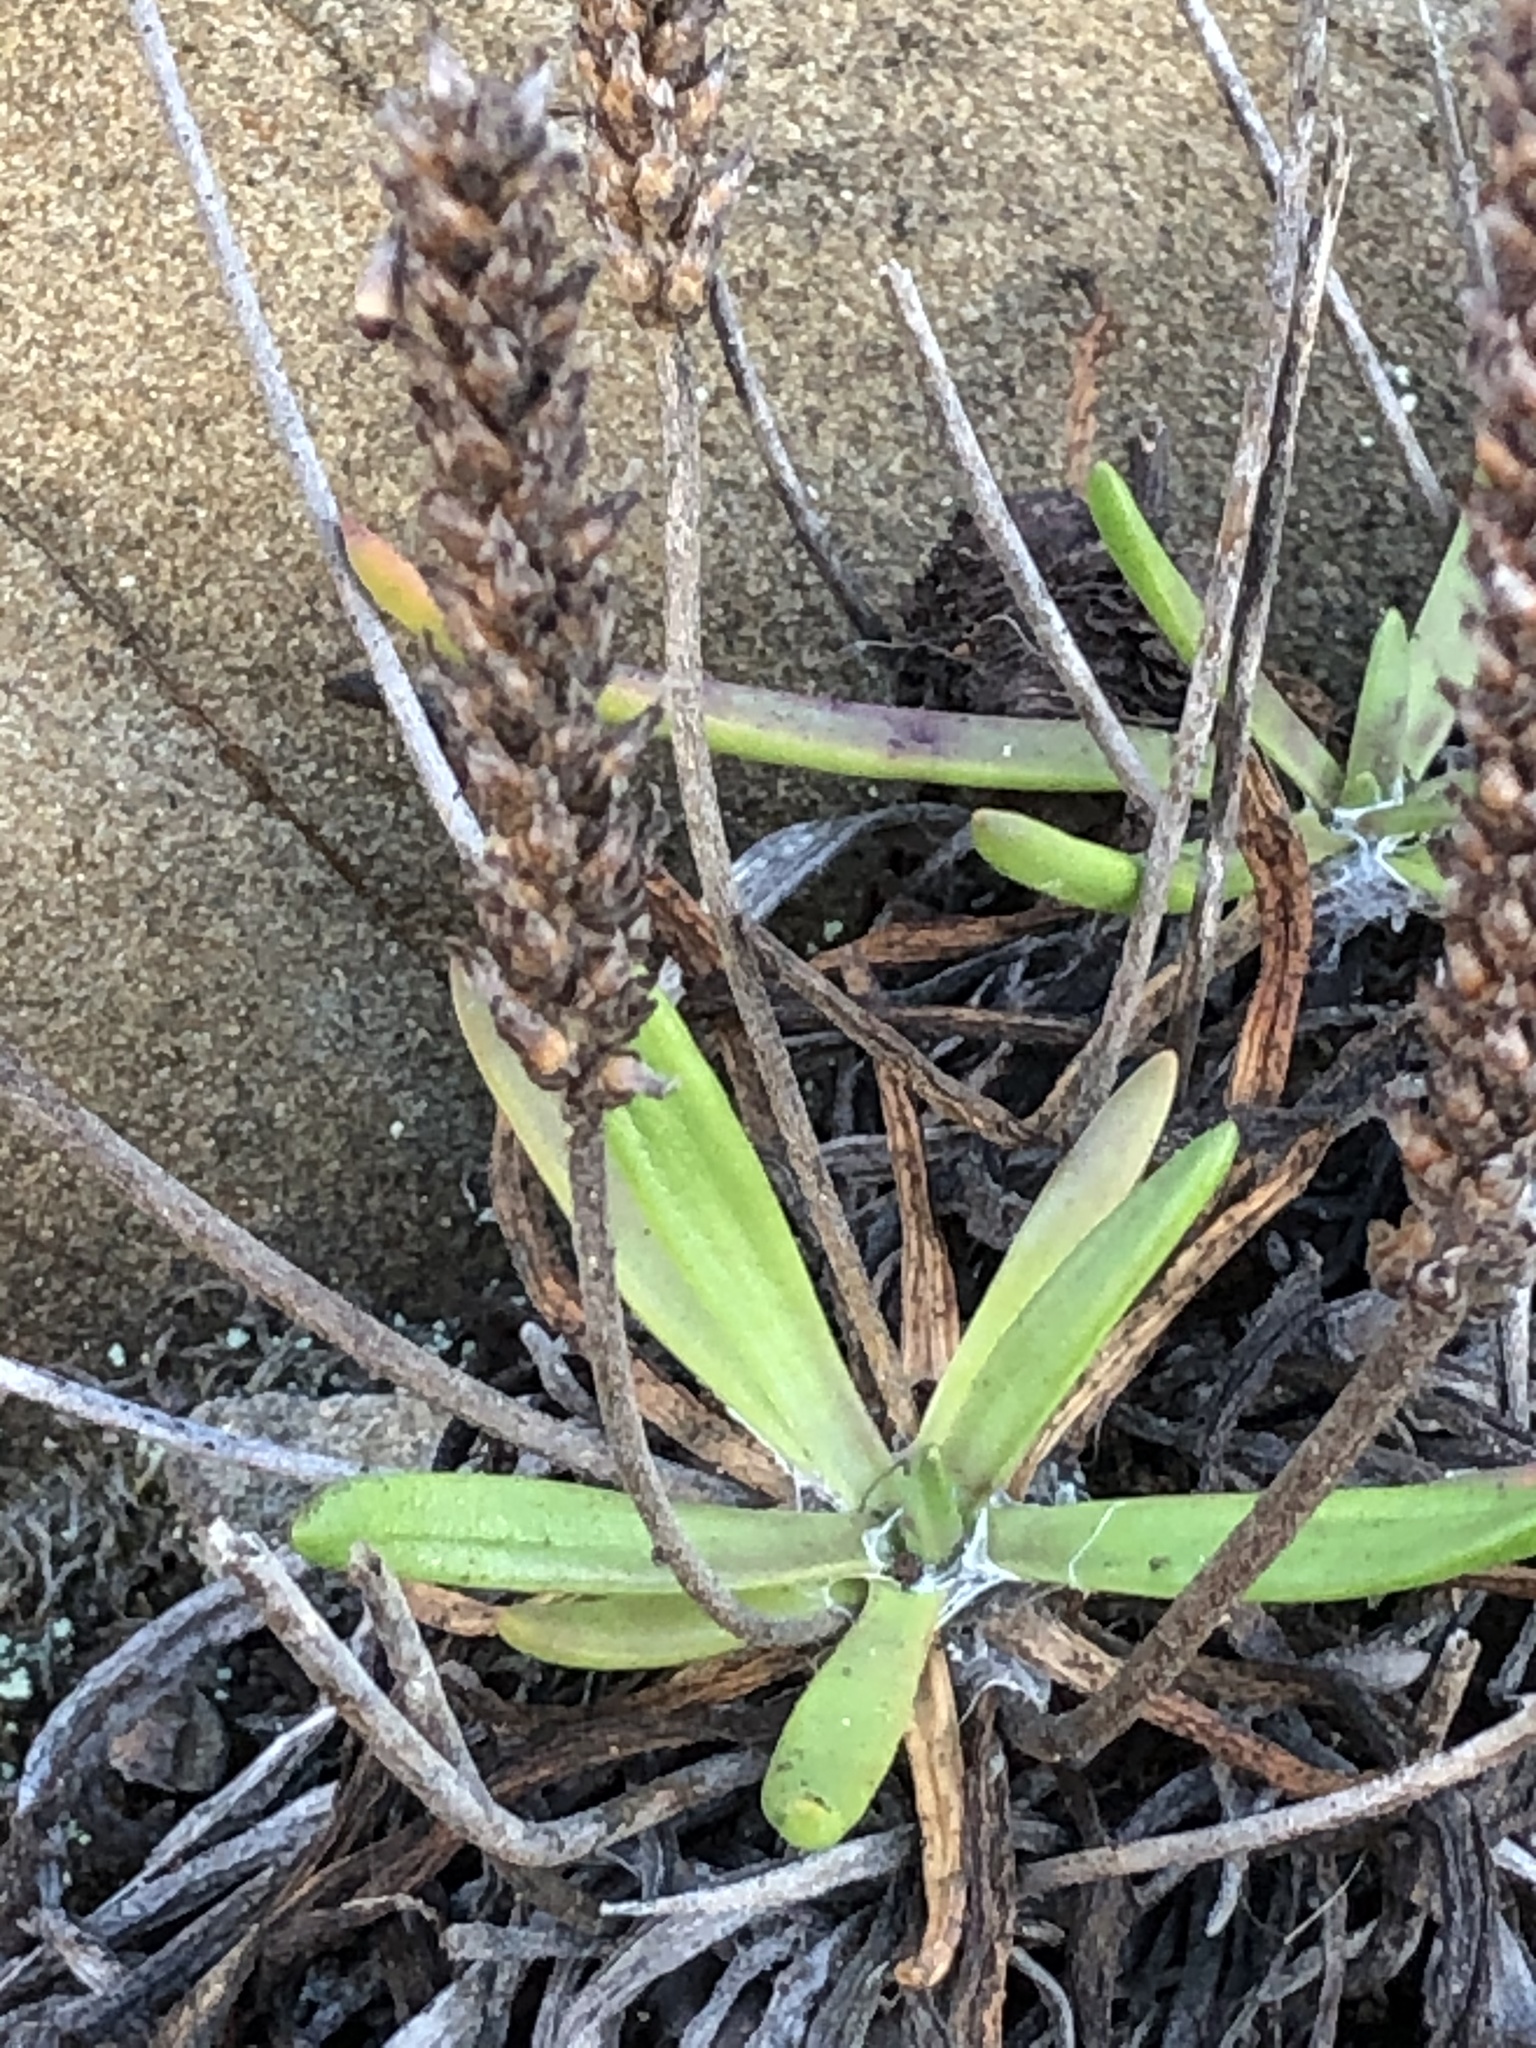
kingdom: Plantae
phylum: Tracheophyta
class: Magnoliopsida
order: Lamiales
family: Plantaginaceae
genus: Plantago
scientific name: Plantago maritima
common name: Sea plantain
